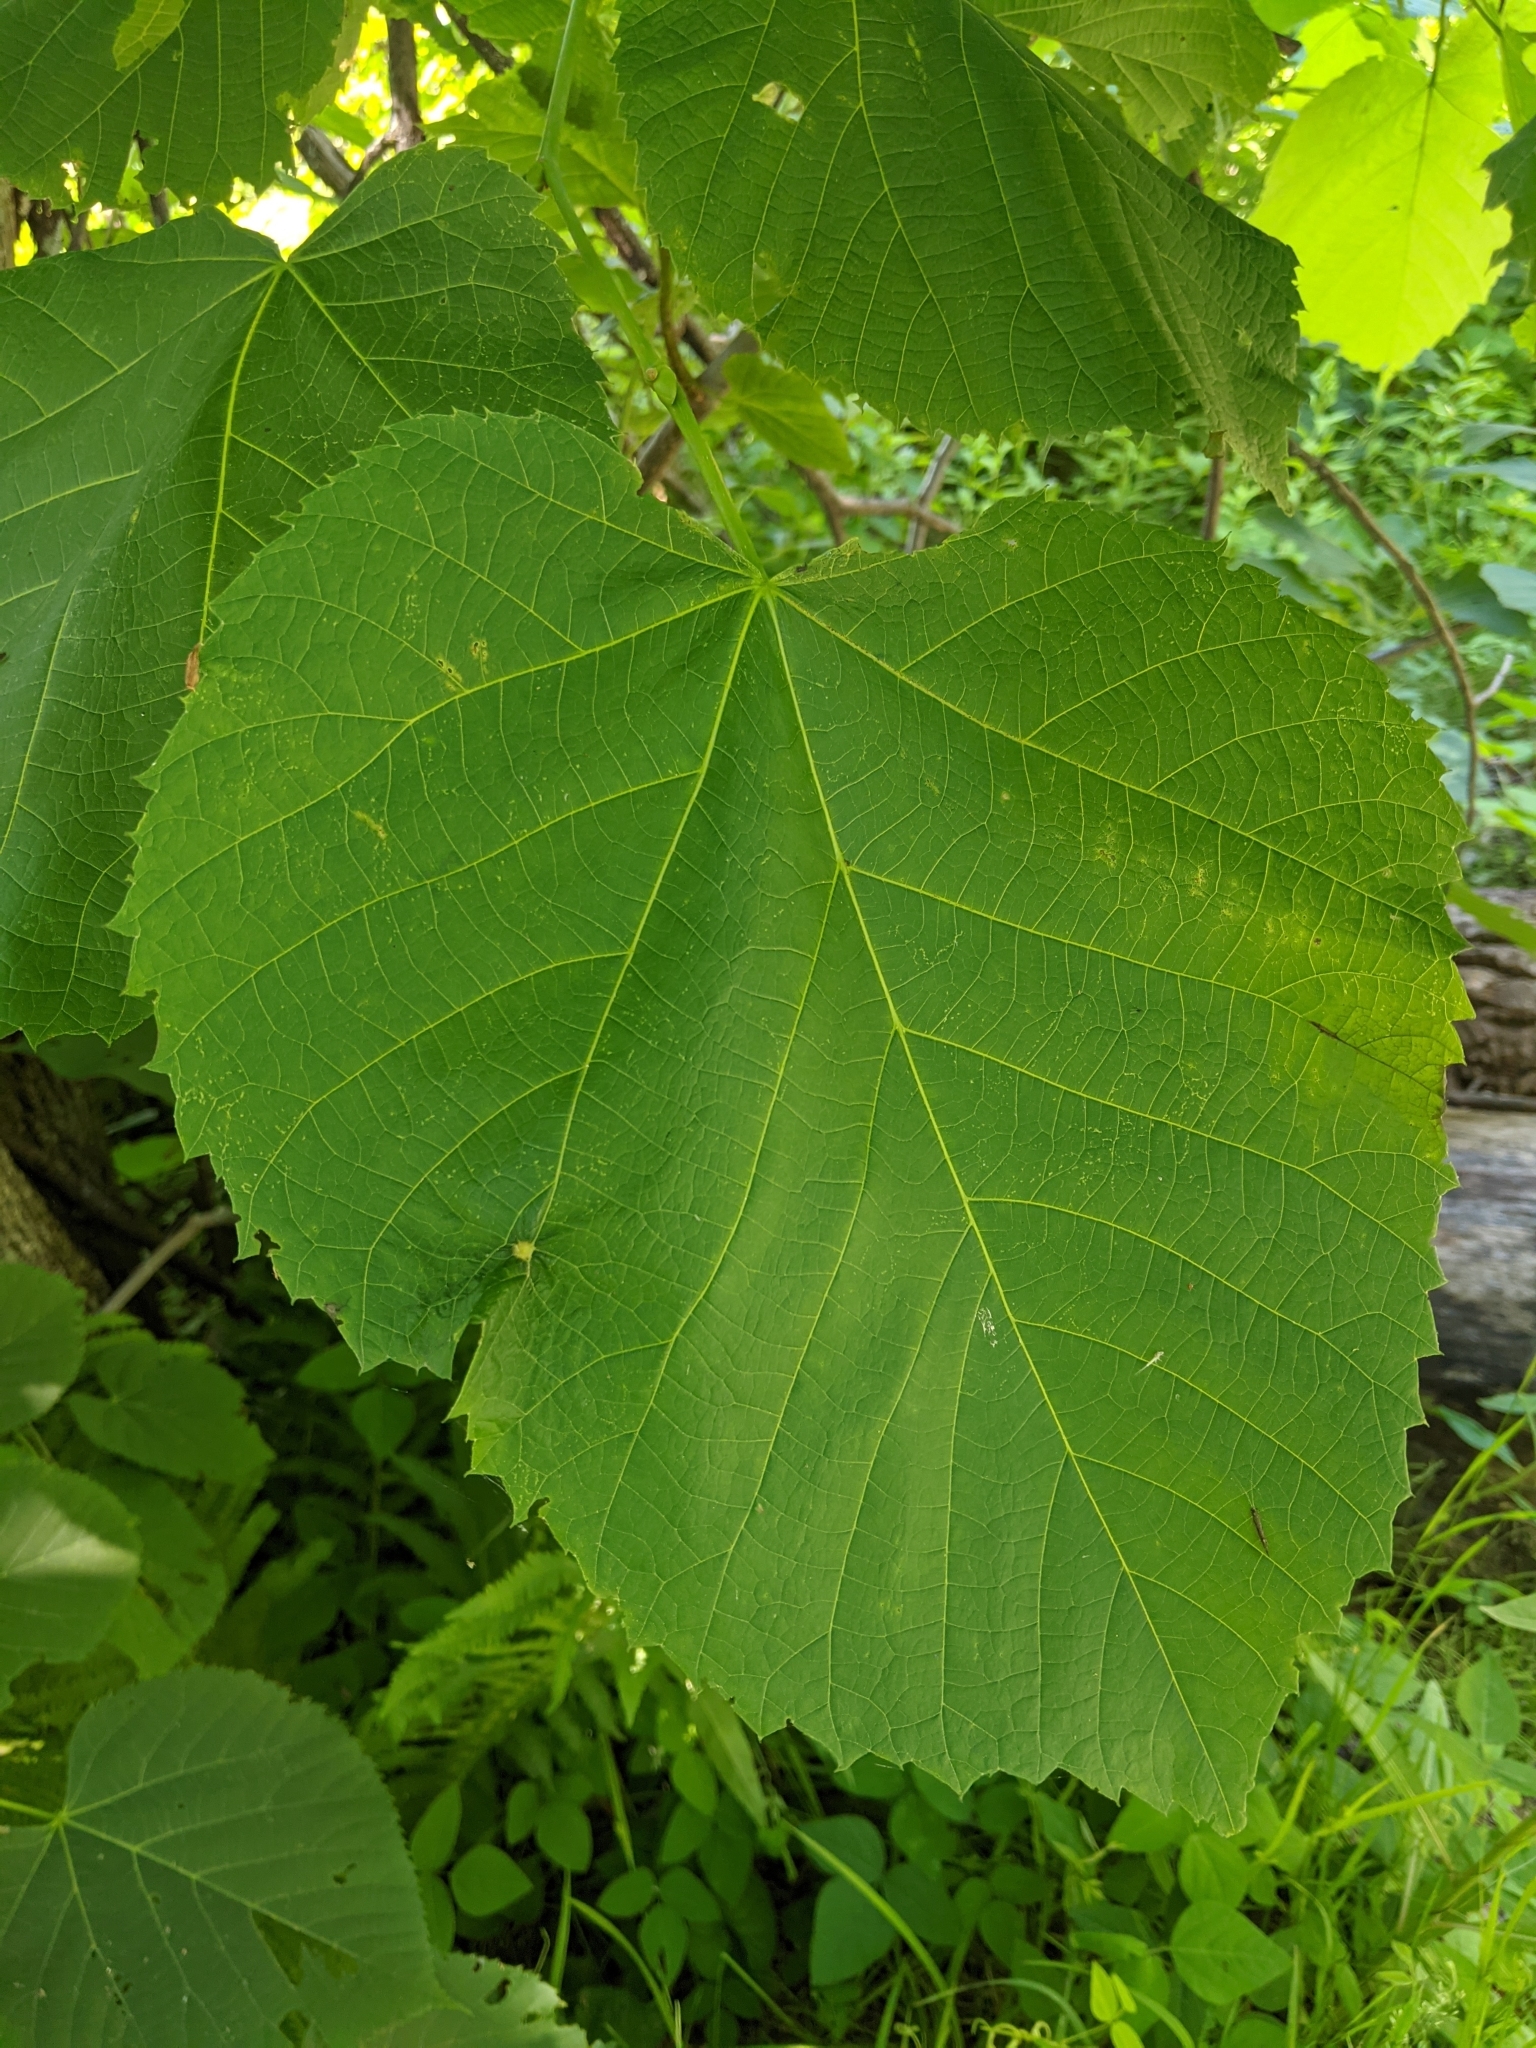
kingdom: Plantae
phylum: Tracheophyta
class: Magnoliopsida
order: Malvales
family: Malvaceae
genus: Tilia
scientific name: Tilia americana
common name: Basswood
